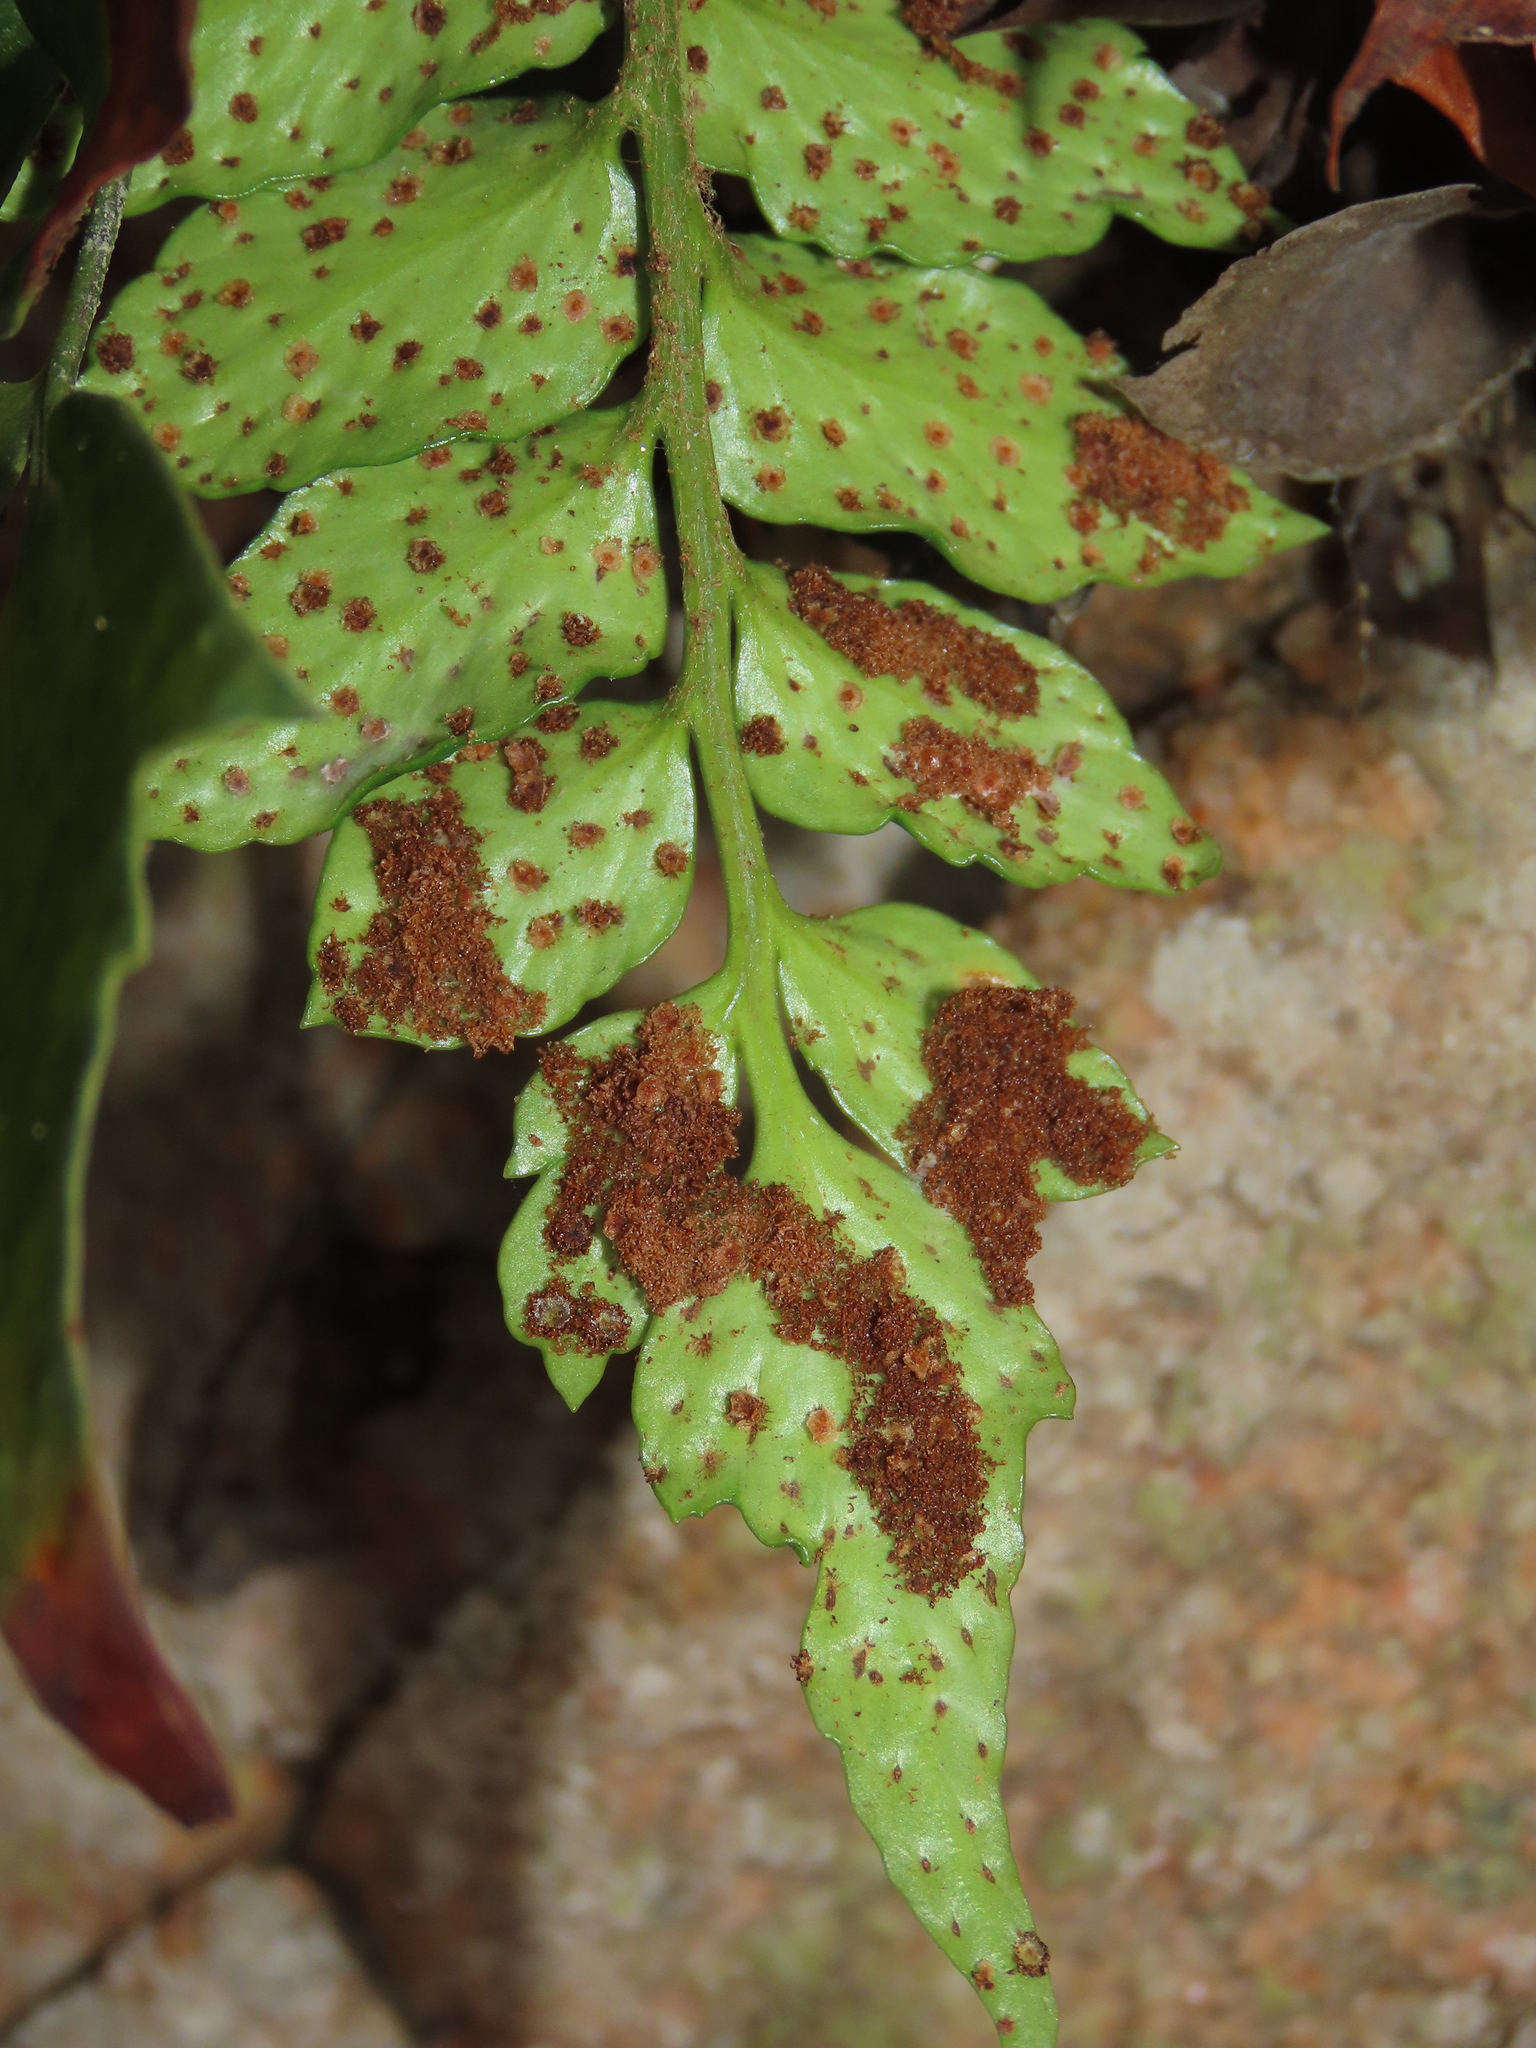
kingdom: Plantae
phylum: Tracheophyta
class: Polypodiopsida
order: Polypodiales
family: Dryopteridaceae
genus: Cyrtomium
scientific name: Cyrtomium falcatum
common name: House holly-fern
